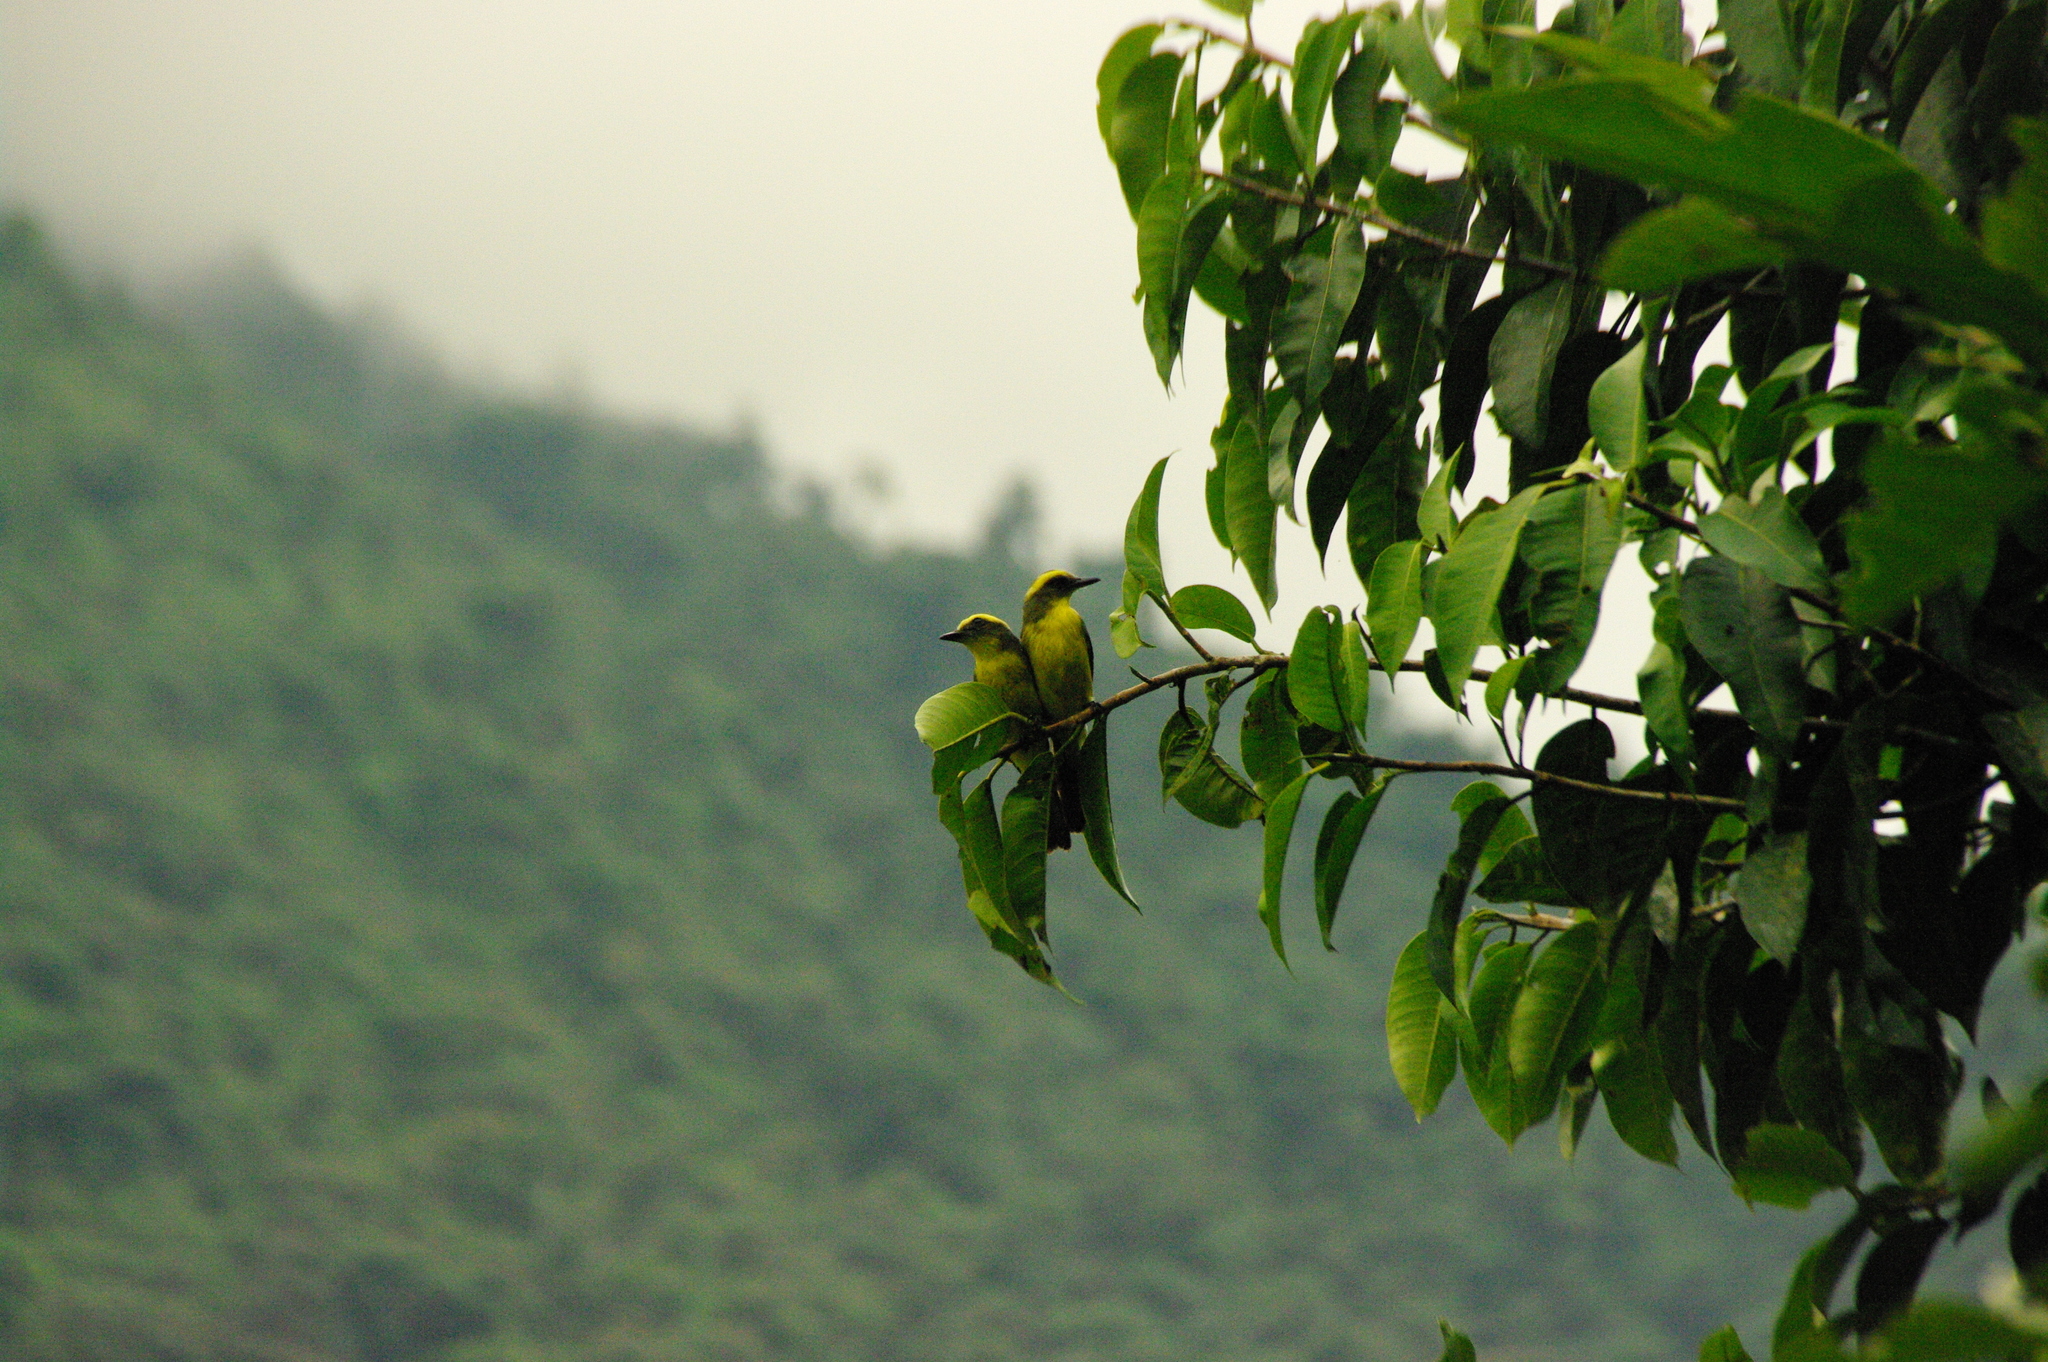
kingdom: Animalia
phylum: Chordata
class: Aves
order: Passeriformes
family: Tyrannidae
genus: Conopias
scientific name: Conopias cinchoneti
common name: Lemon-browed flycatcher
